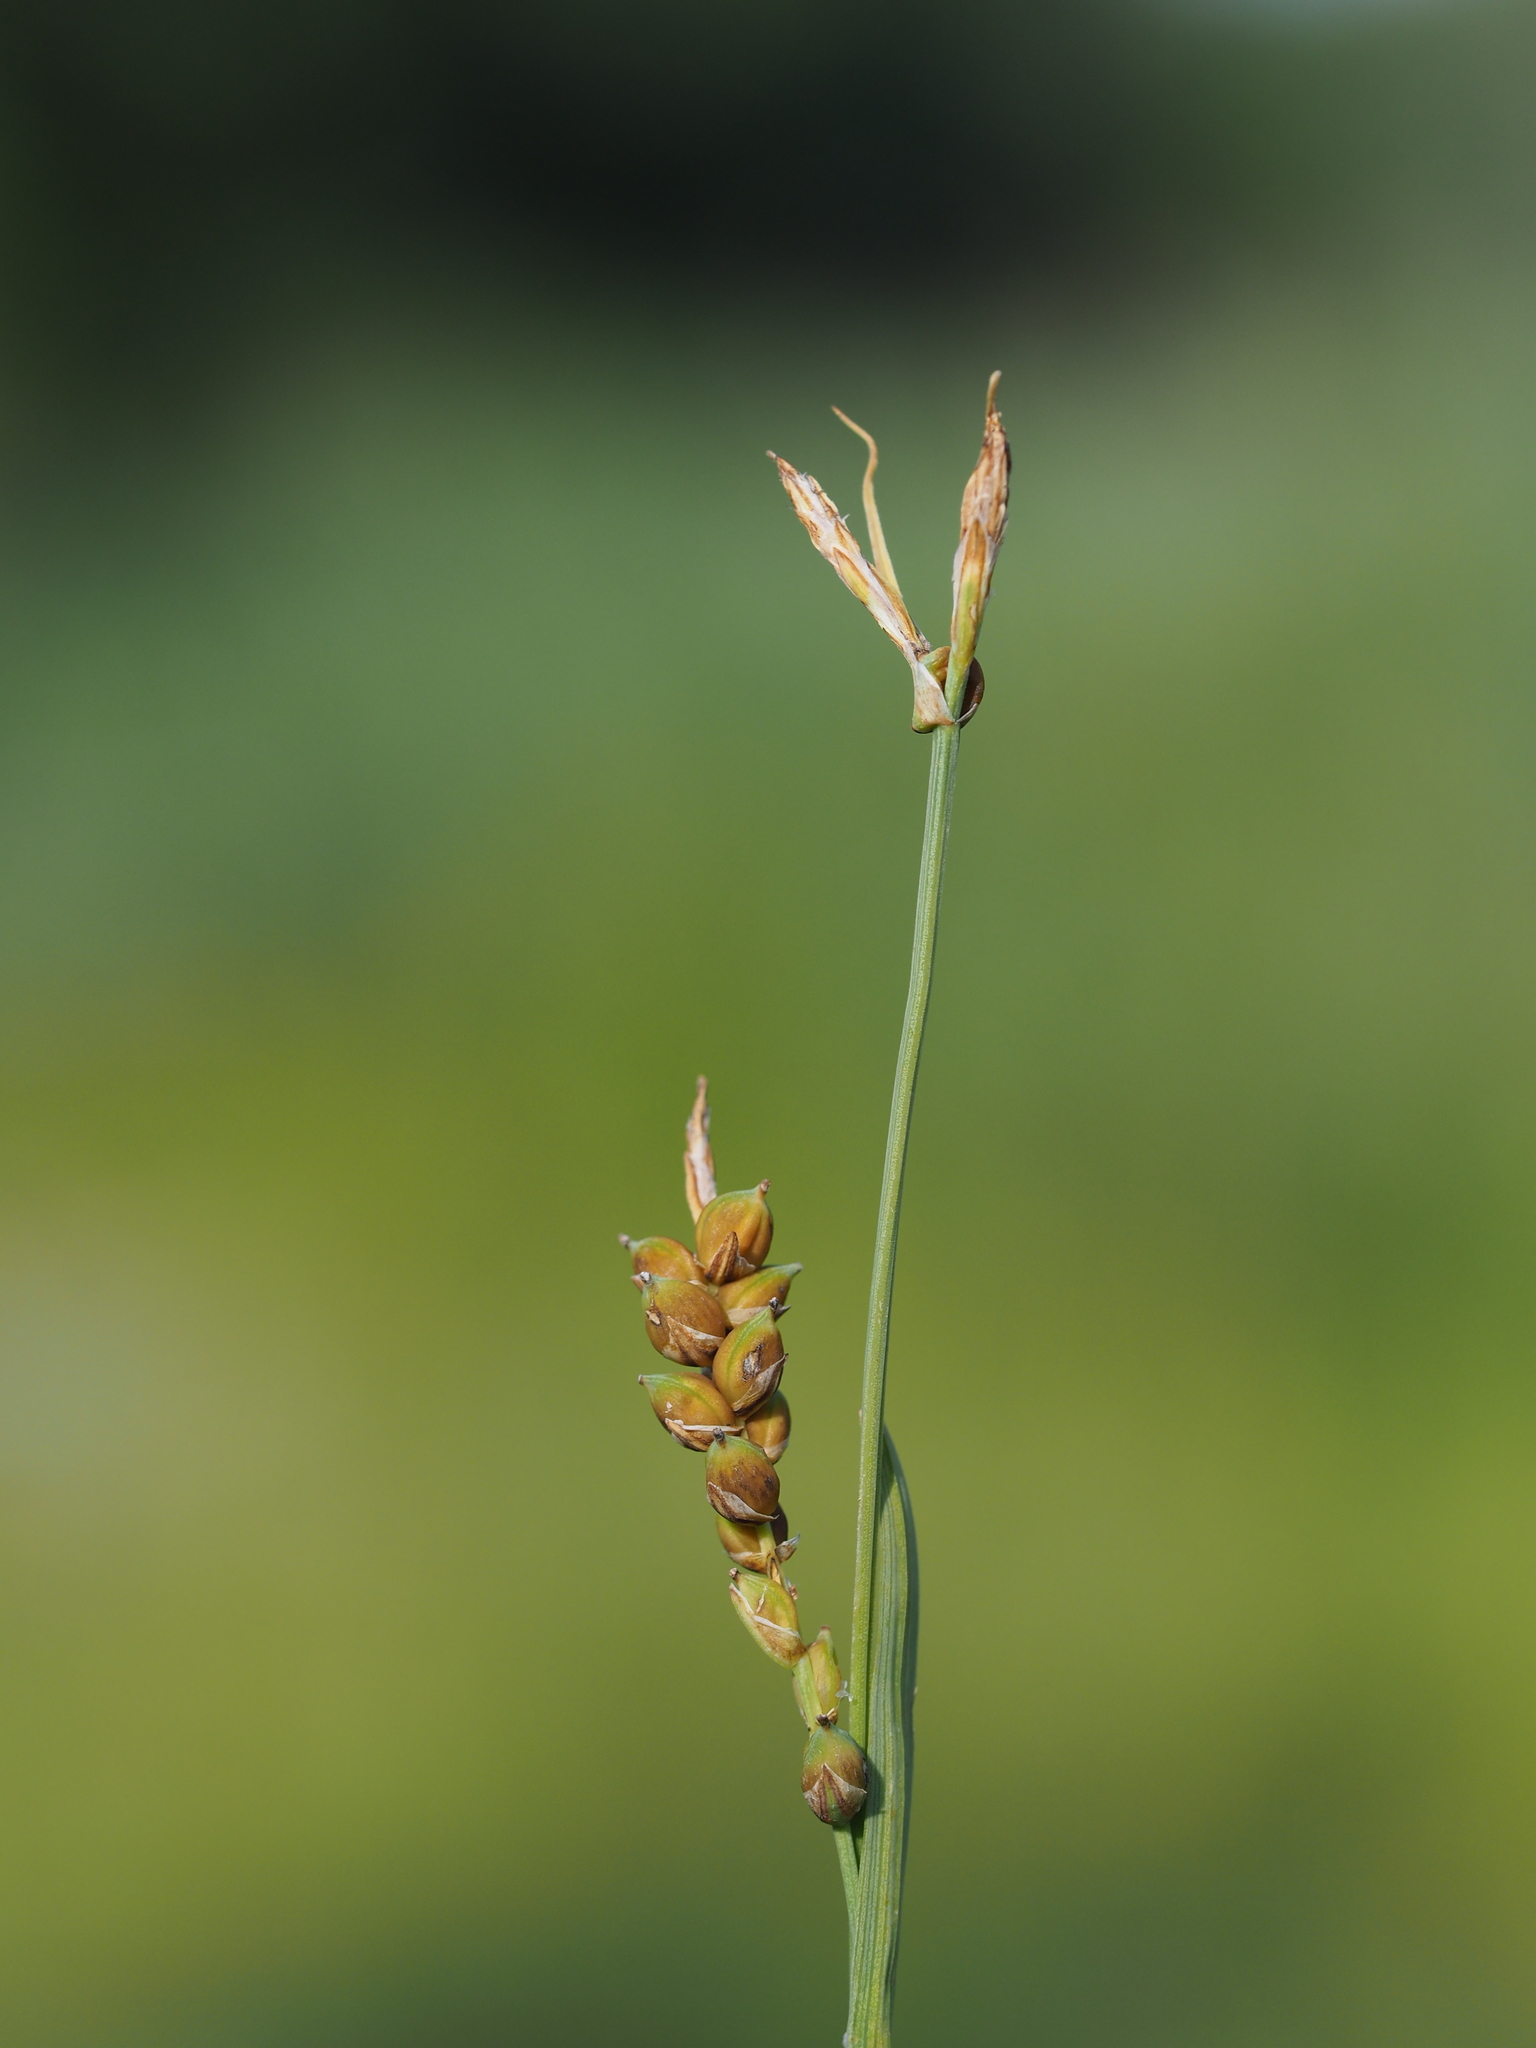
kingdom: Plantae
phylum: Tracheophyta
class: Liliopsida
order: Poales
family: Cyperaceae
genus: Carex
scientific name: Carex panicea
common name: Carnation sedge
